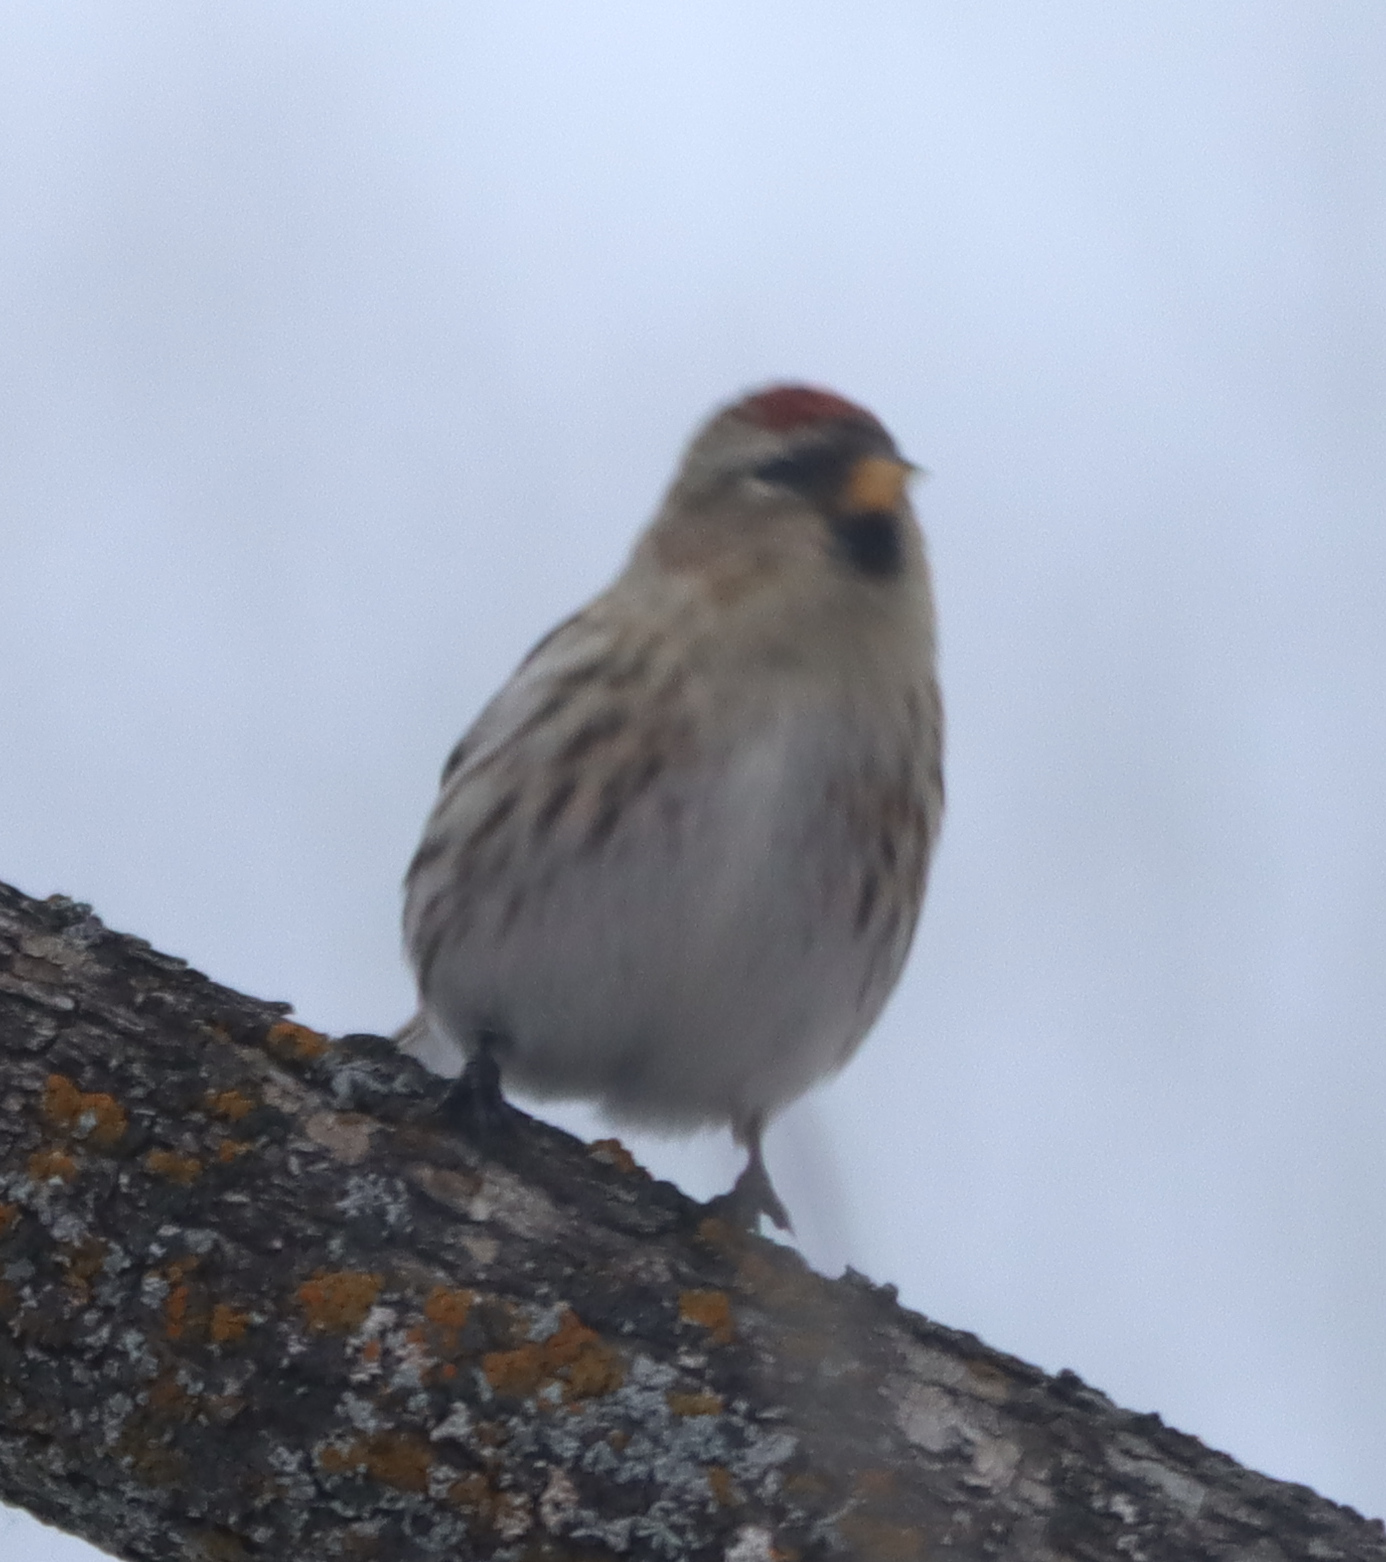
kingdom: Animalia
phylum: Chordata
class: Aves
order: Passeriformes
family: Fringillidae
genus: Acanthis
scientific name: Acanthis flammea
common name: Common redpoll
